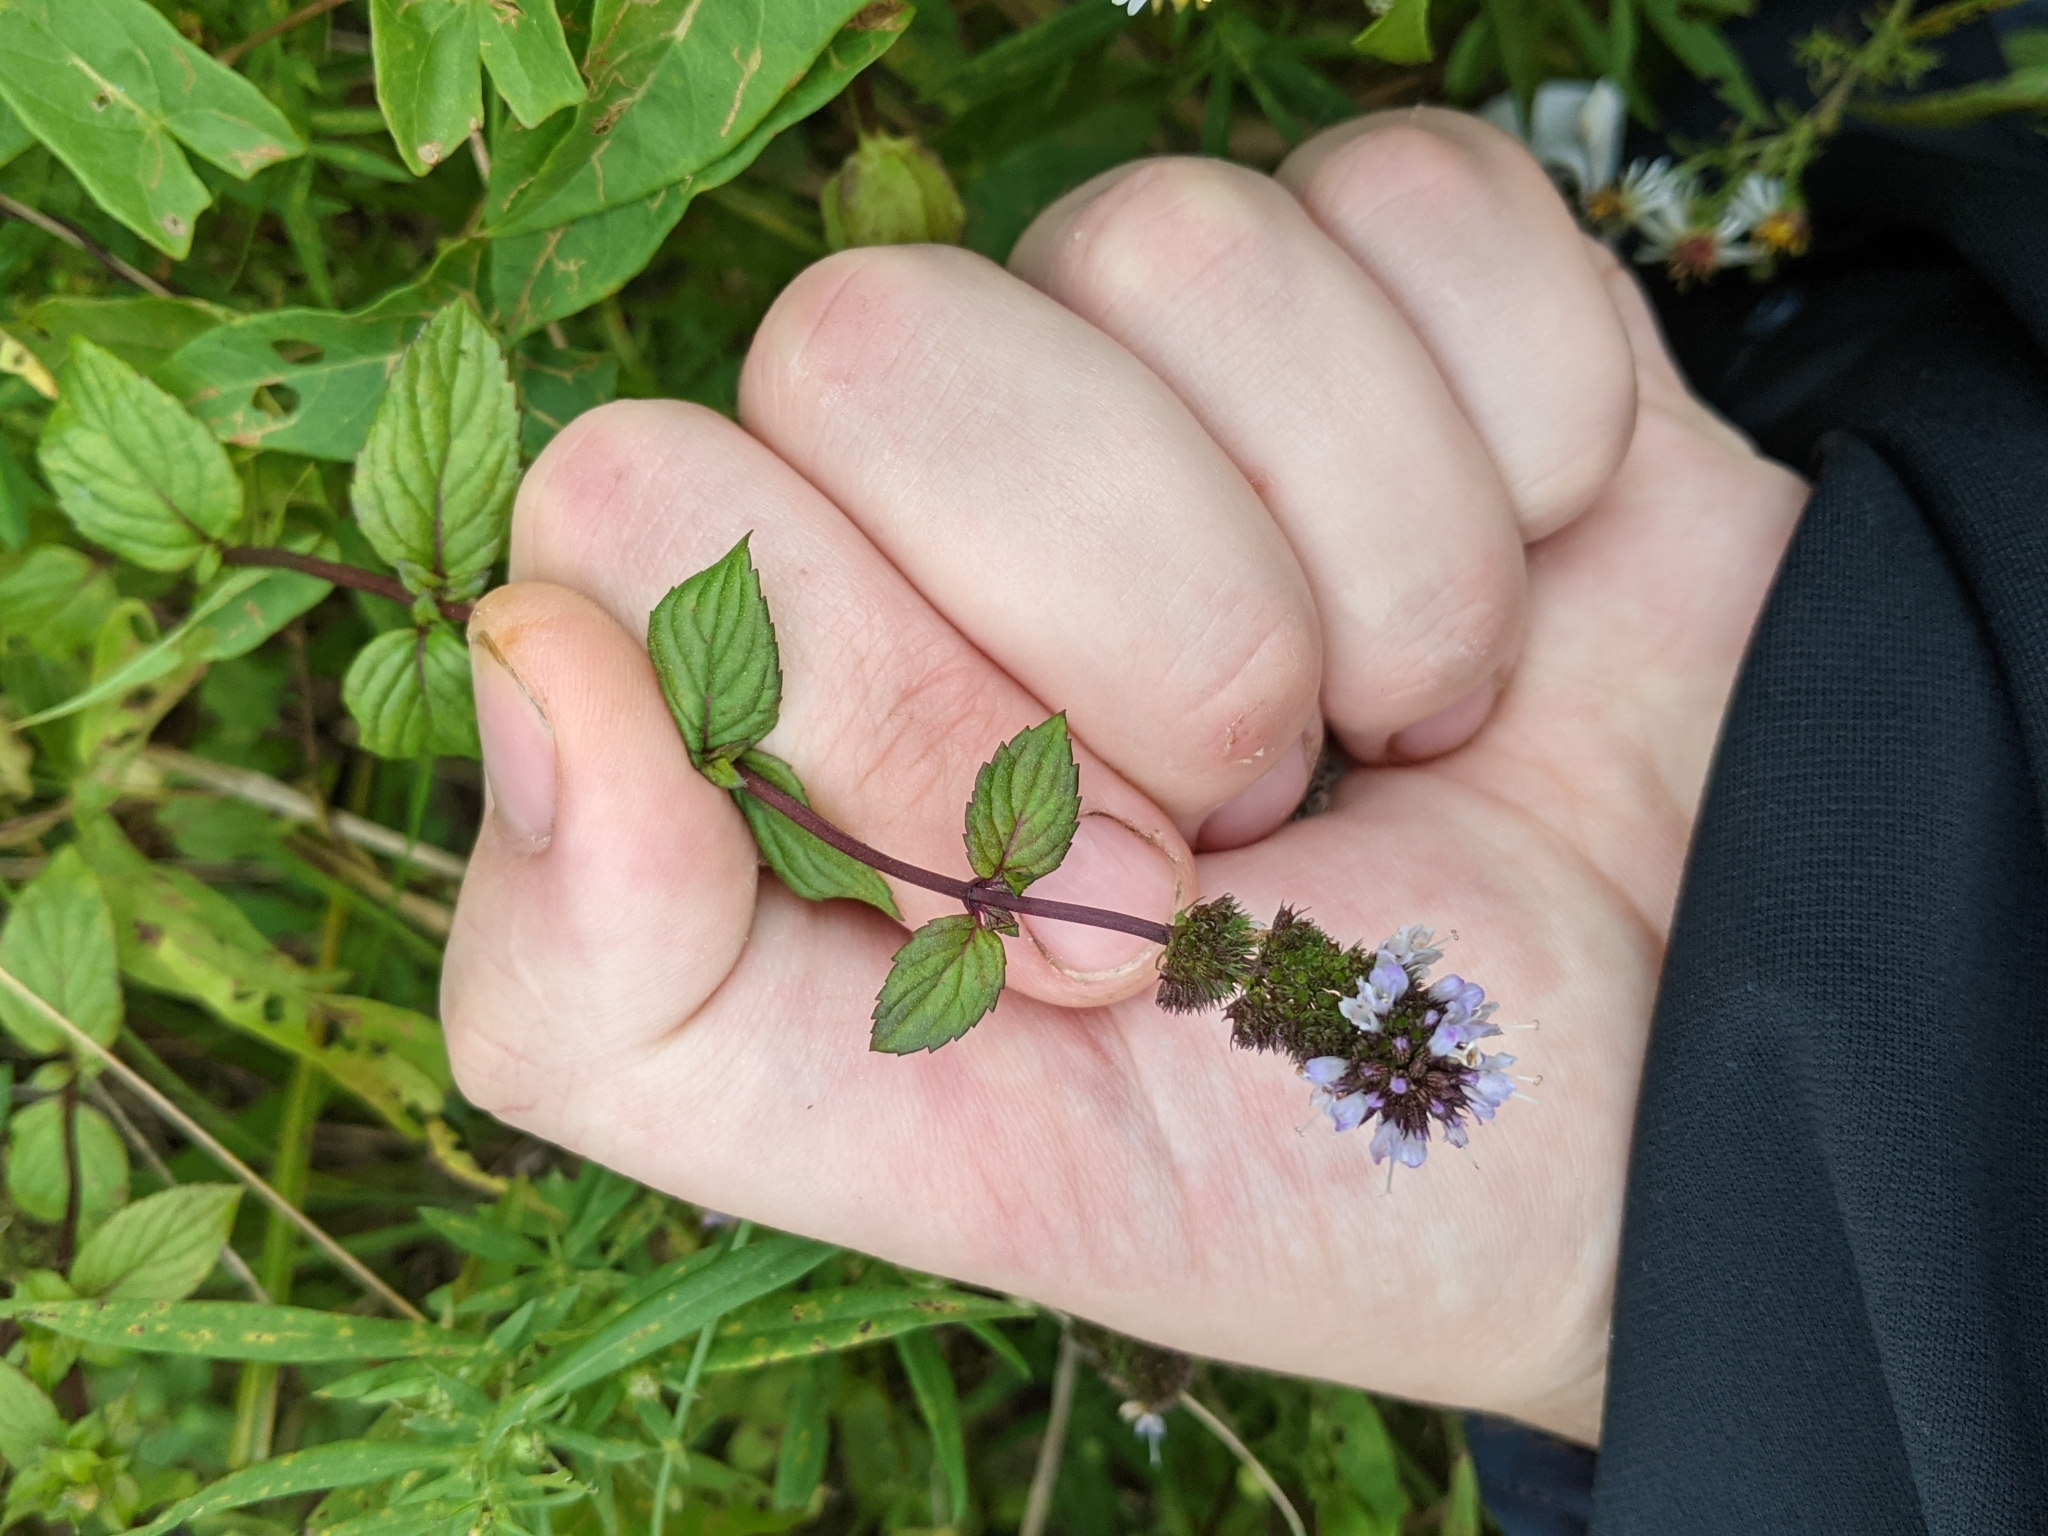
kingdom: Plantae
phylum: Tracheophyta
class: Magnoliopsida
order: Lamiales
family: Lamiaceae
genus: Mentha
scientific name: Mentha piperita
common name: Peppermint
